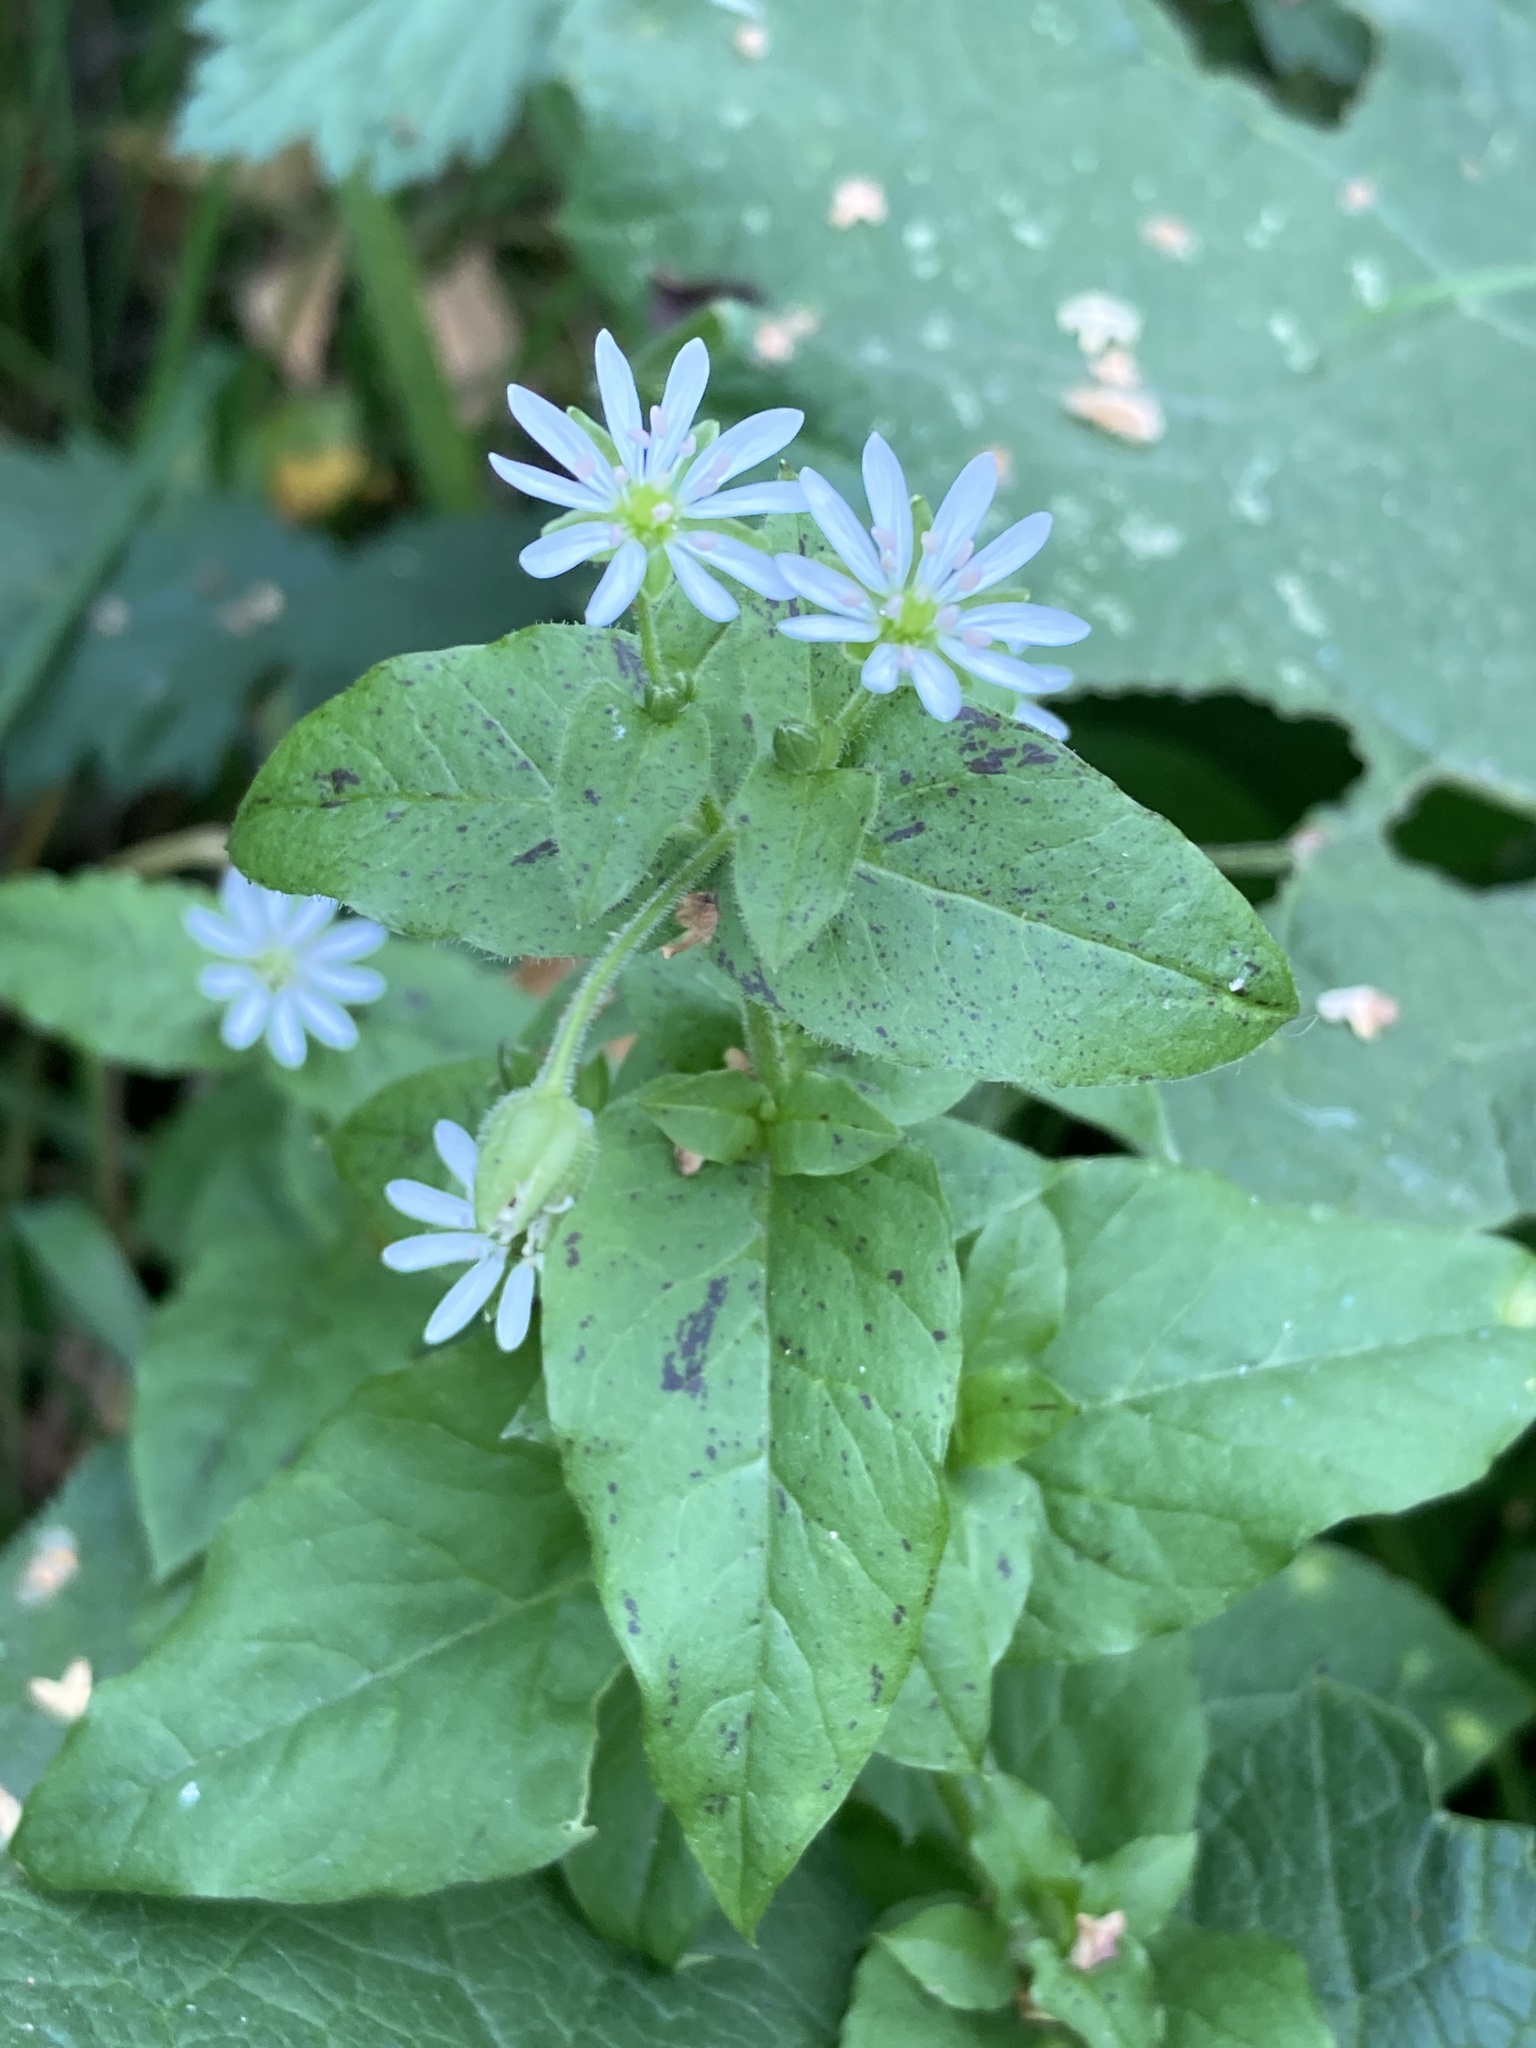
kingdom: Plantae
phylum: Tracheophyta
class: Magnoliopsida
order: Caryophyllales
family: Caryophyllaceae
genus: Stellaria
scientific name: Stellaria aquatica
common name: Water chickweed
